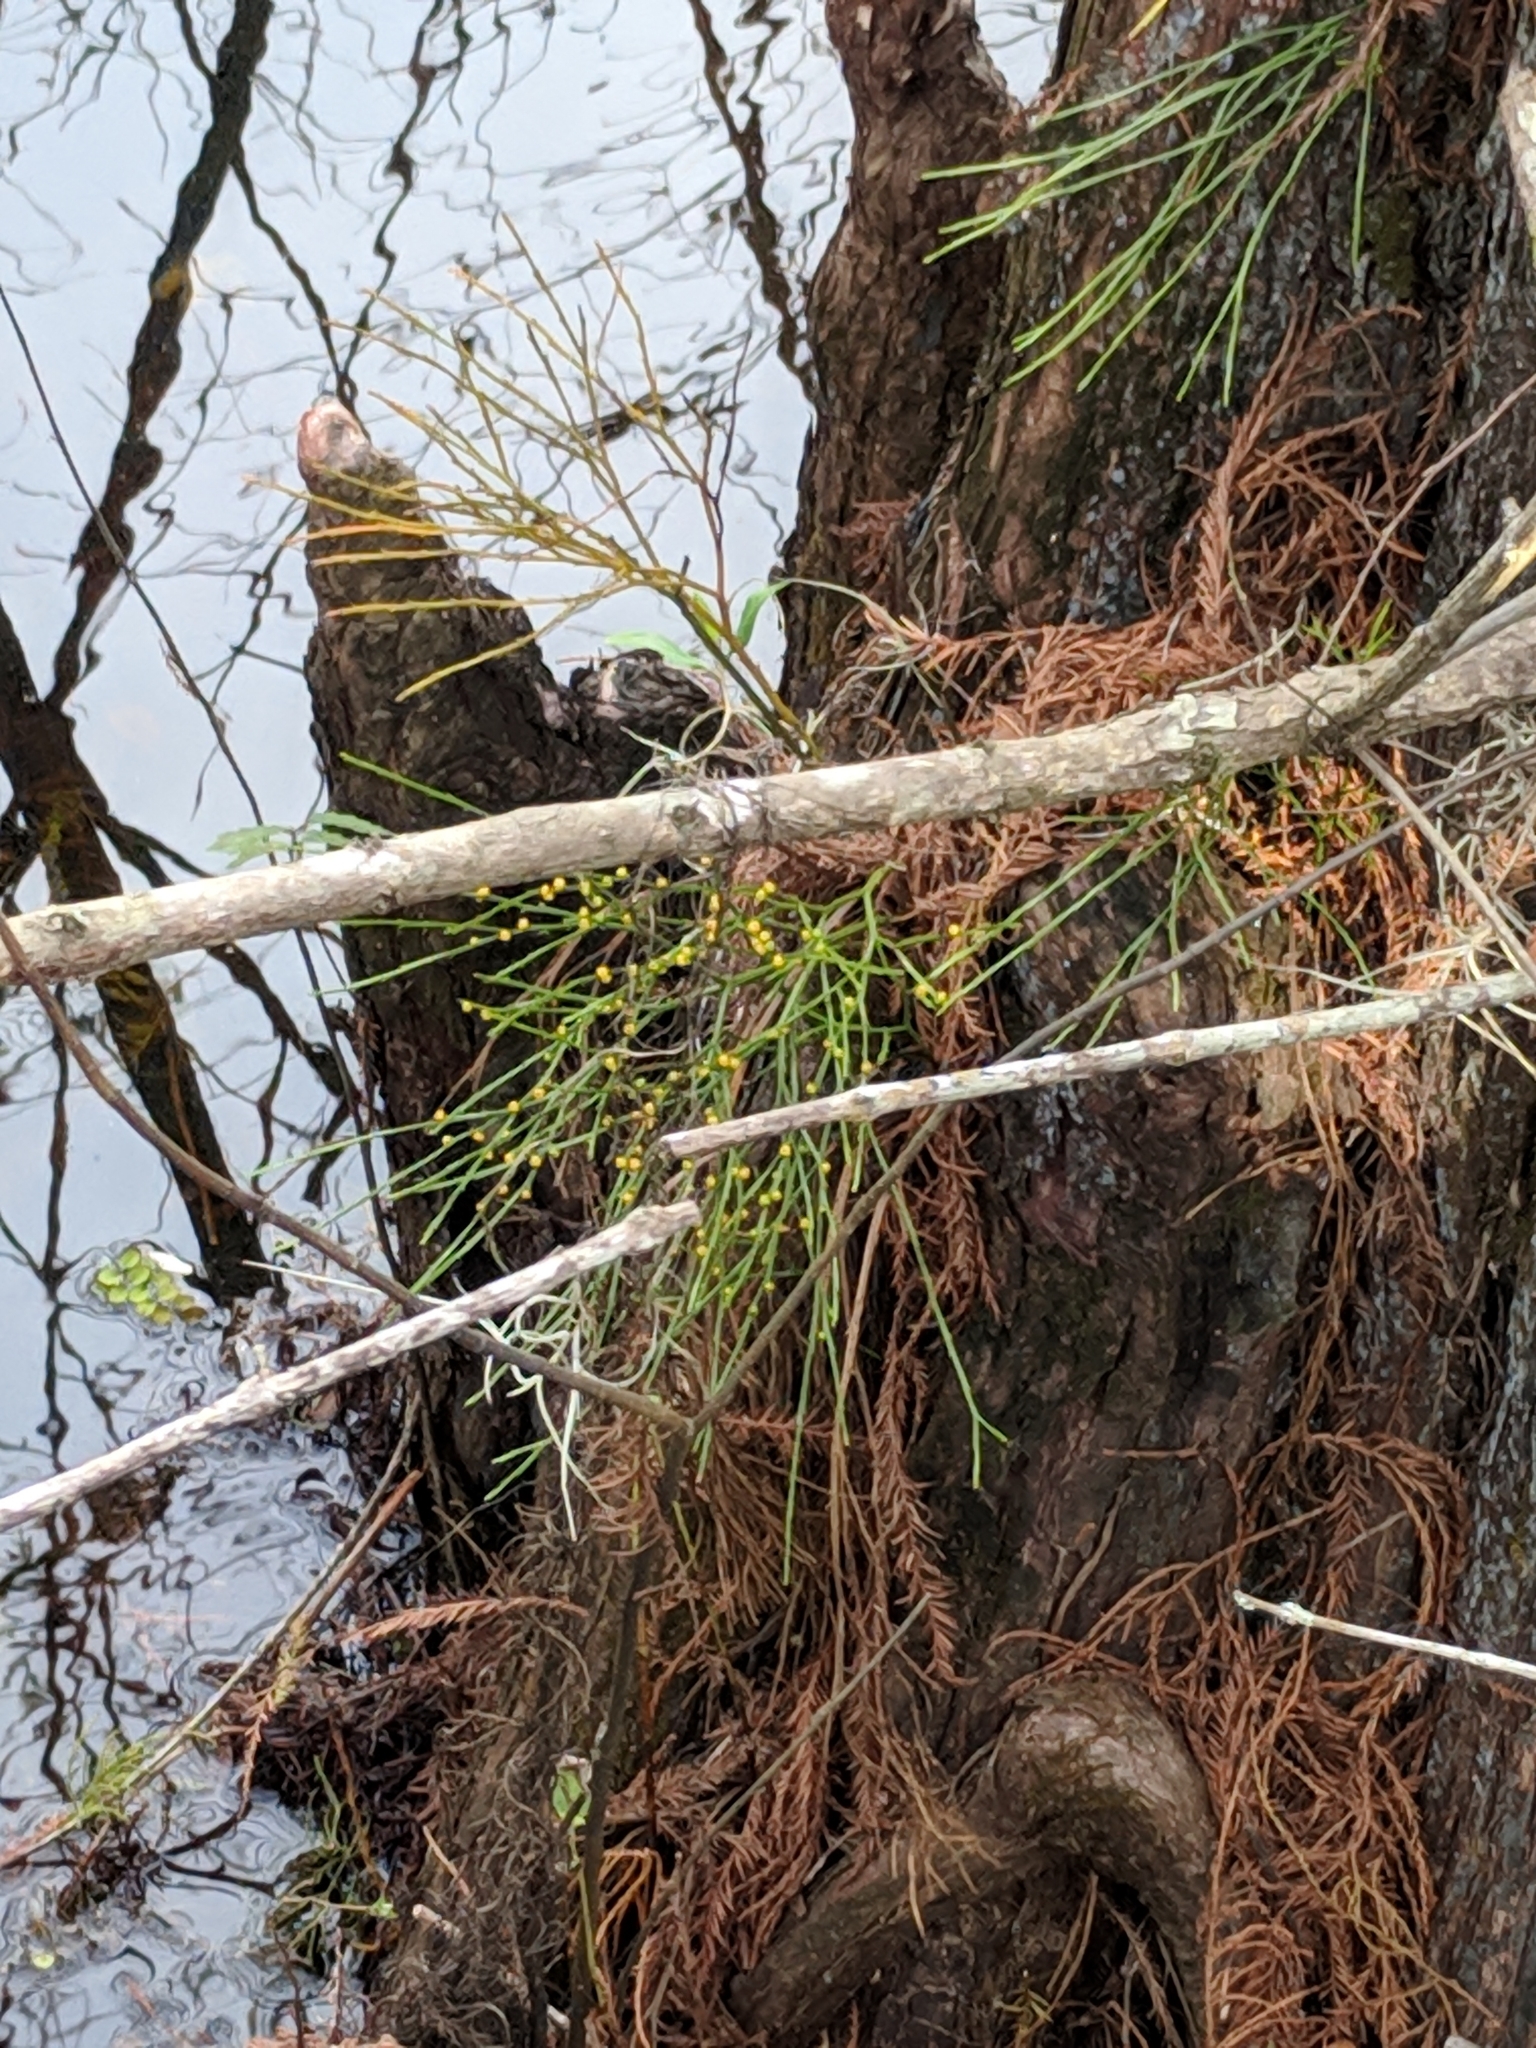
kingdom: Plantae
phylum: Tracheophyta
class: Polypodiopsida
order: Psilotales
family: Psilotaceae
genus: Psilotum
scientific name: Psilotum nudum
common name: Skeleton fork fern
